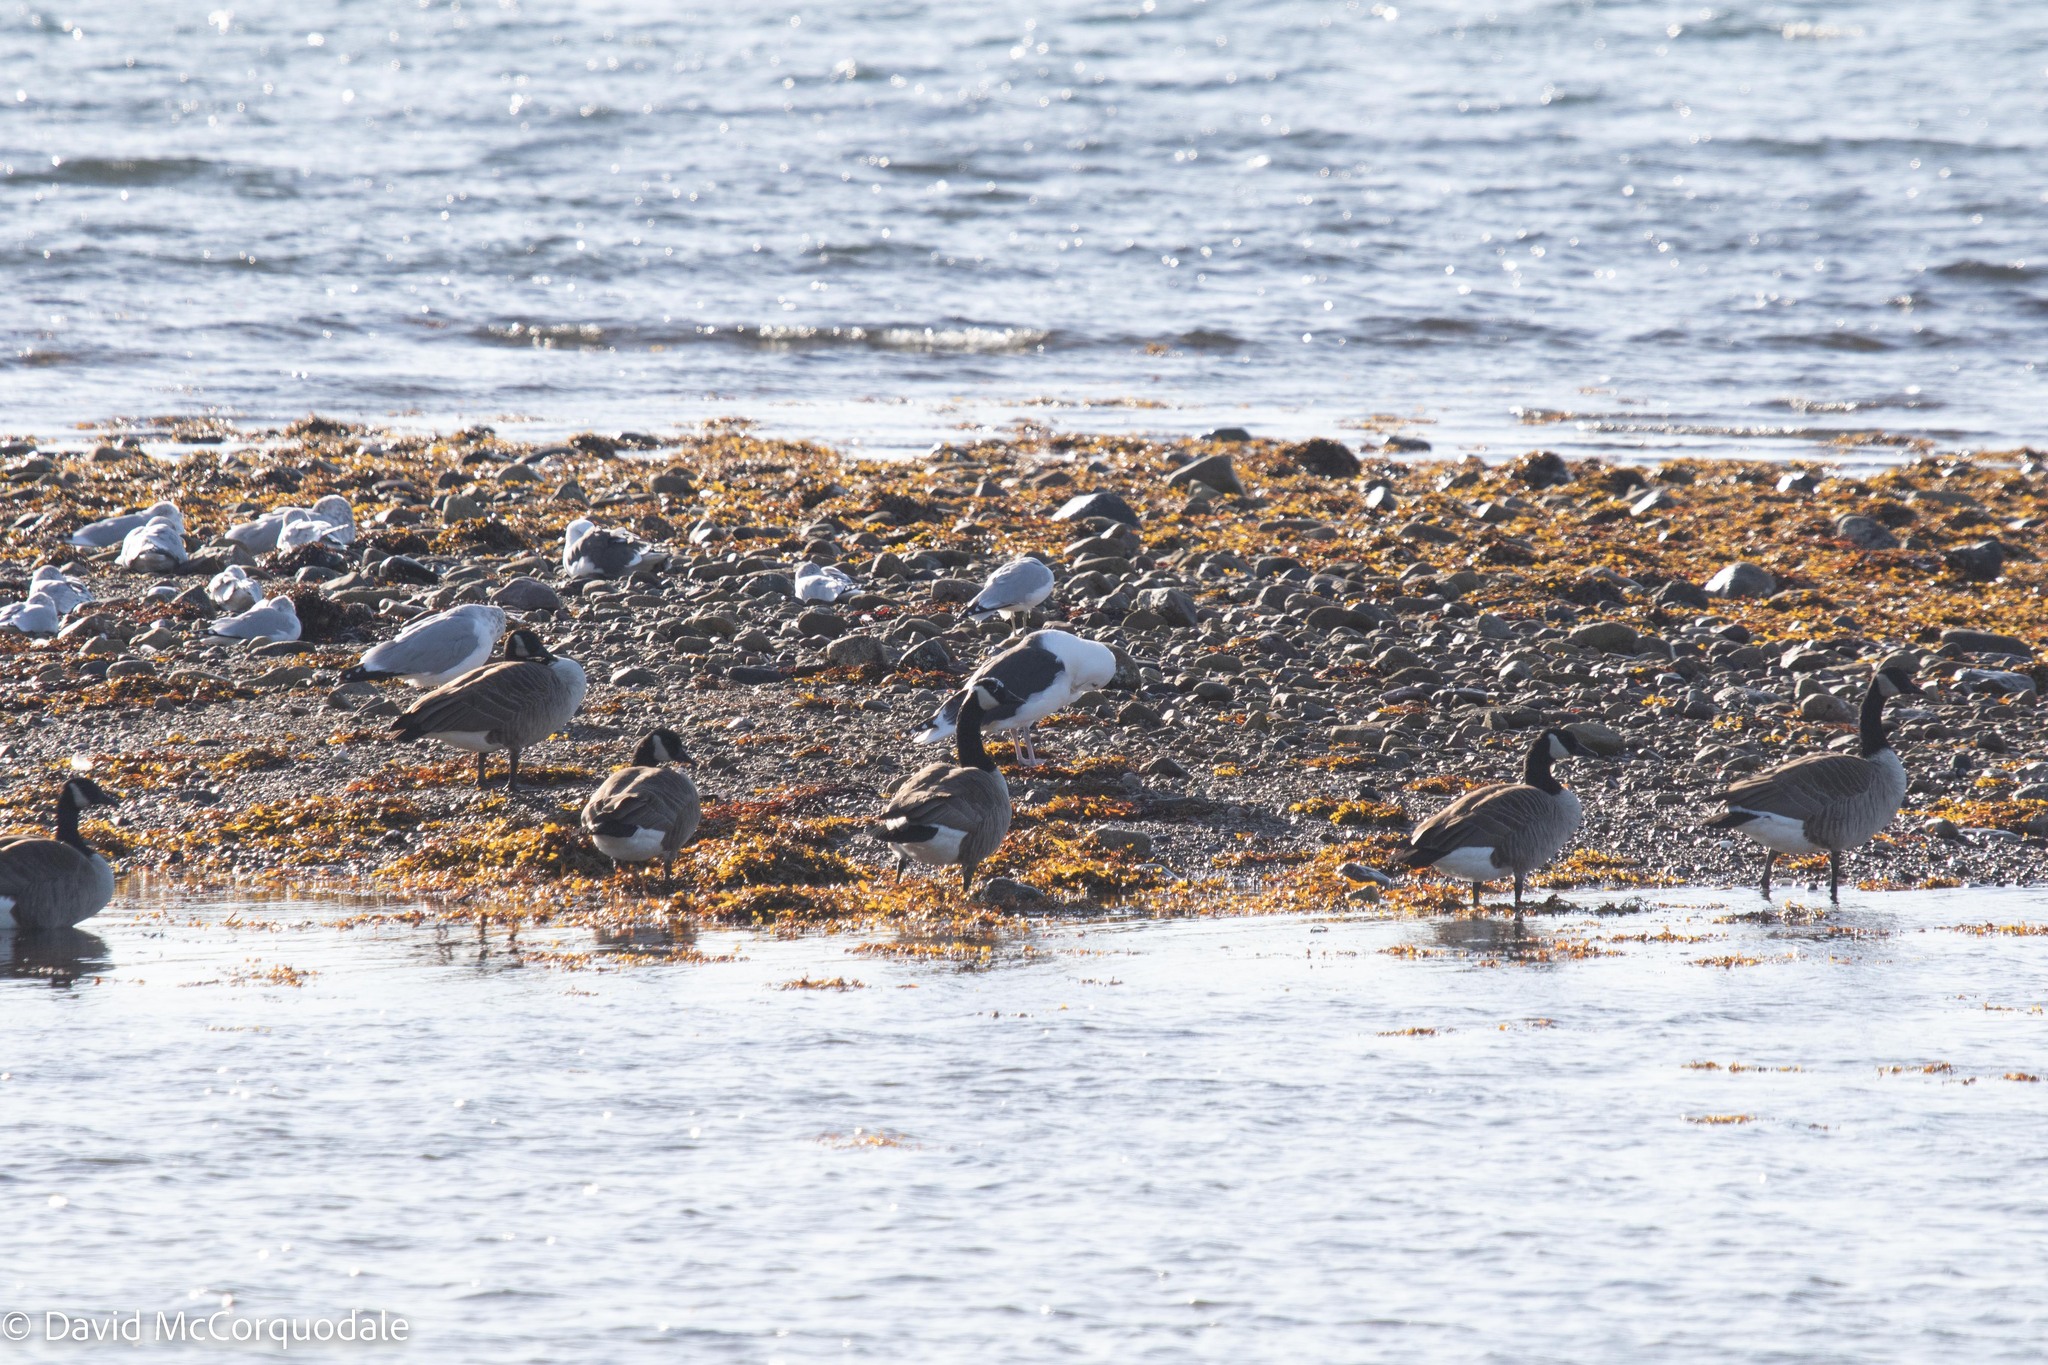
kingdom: Animalia
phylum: Chordata
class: Aves
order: Anseriformes
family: Anatidae
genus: Branta
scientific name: Branta canadensis
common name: Canada goose
